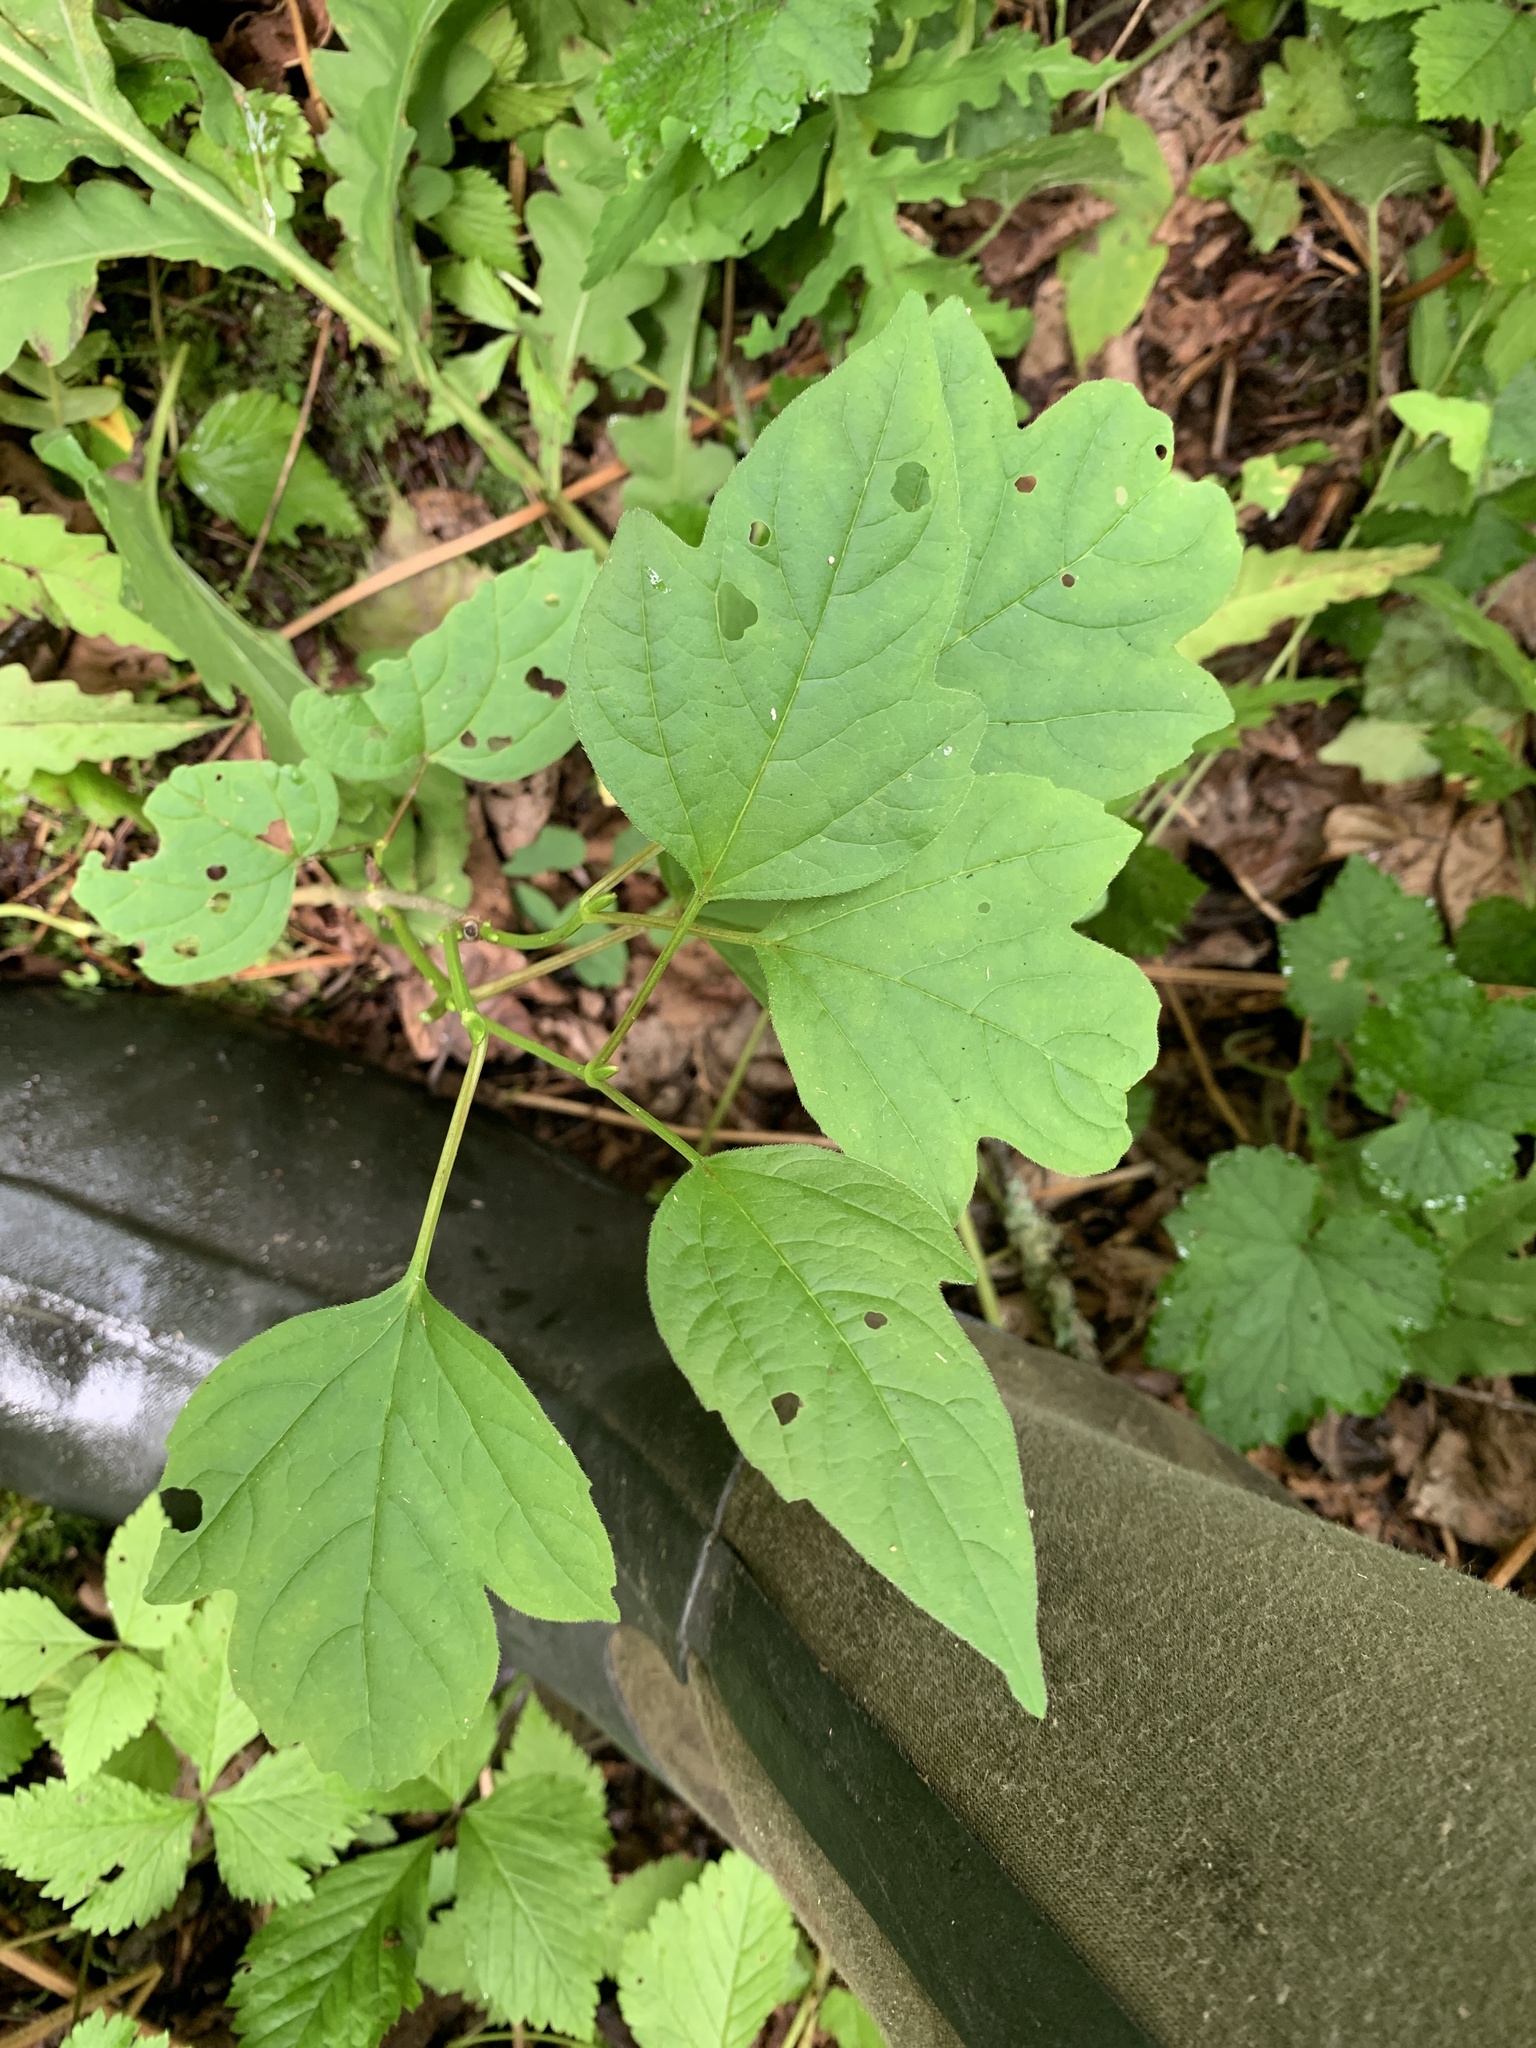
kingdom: Plantae
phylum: Tracheophyta
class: Magnoliopsida
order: Dipsacales
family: Viburnaceae
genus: Viburnum
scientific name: Viburnum opulus
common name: Guelder-rose
